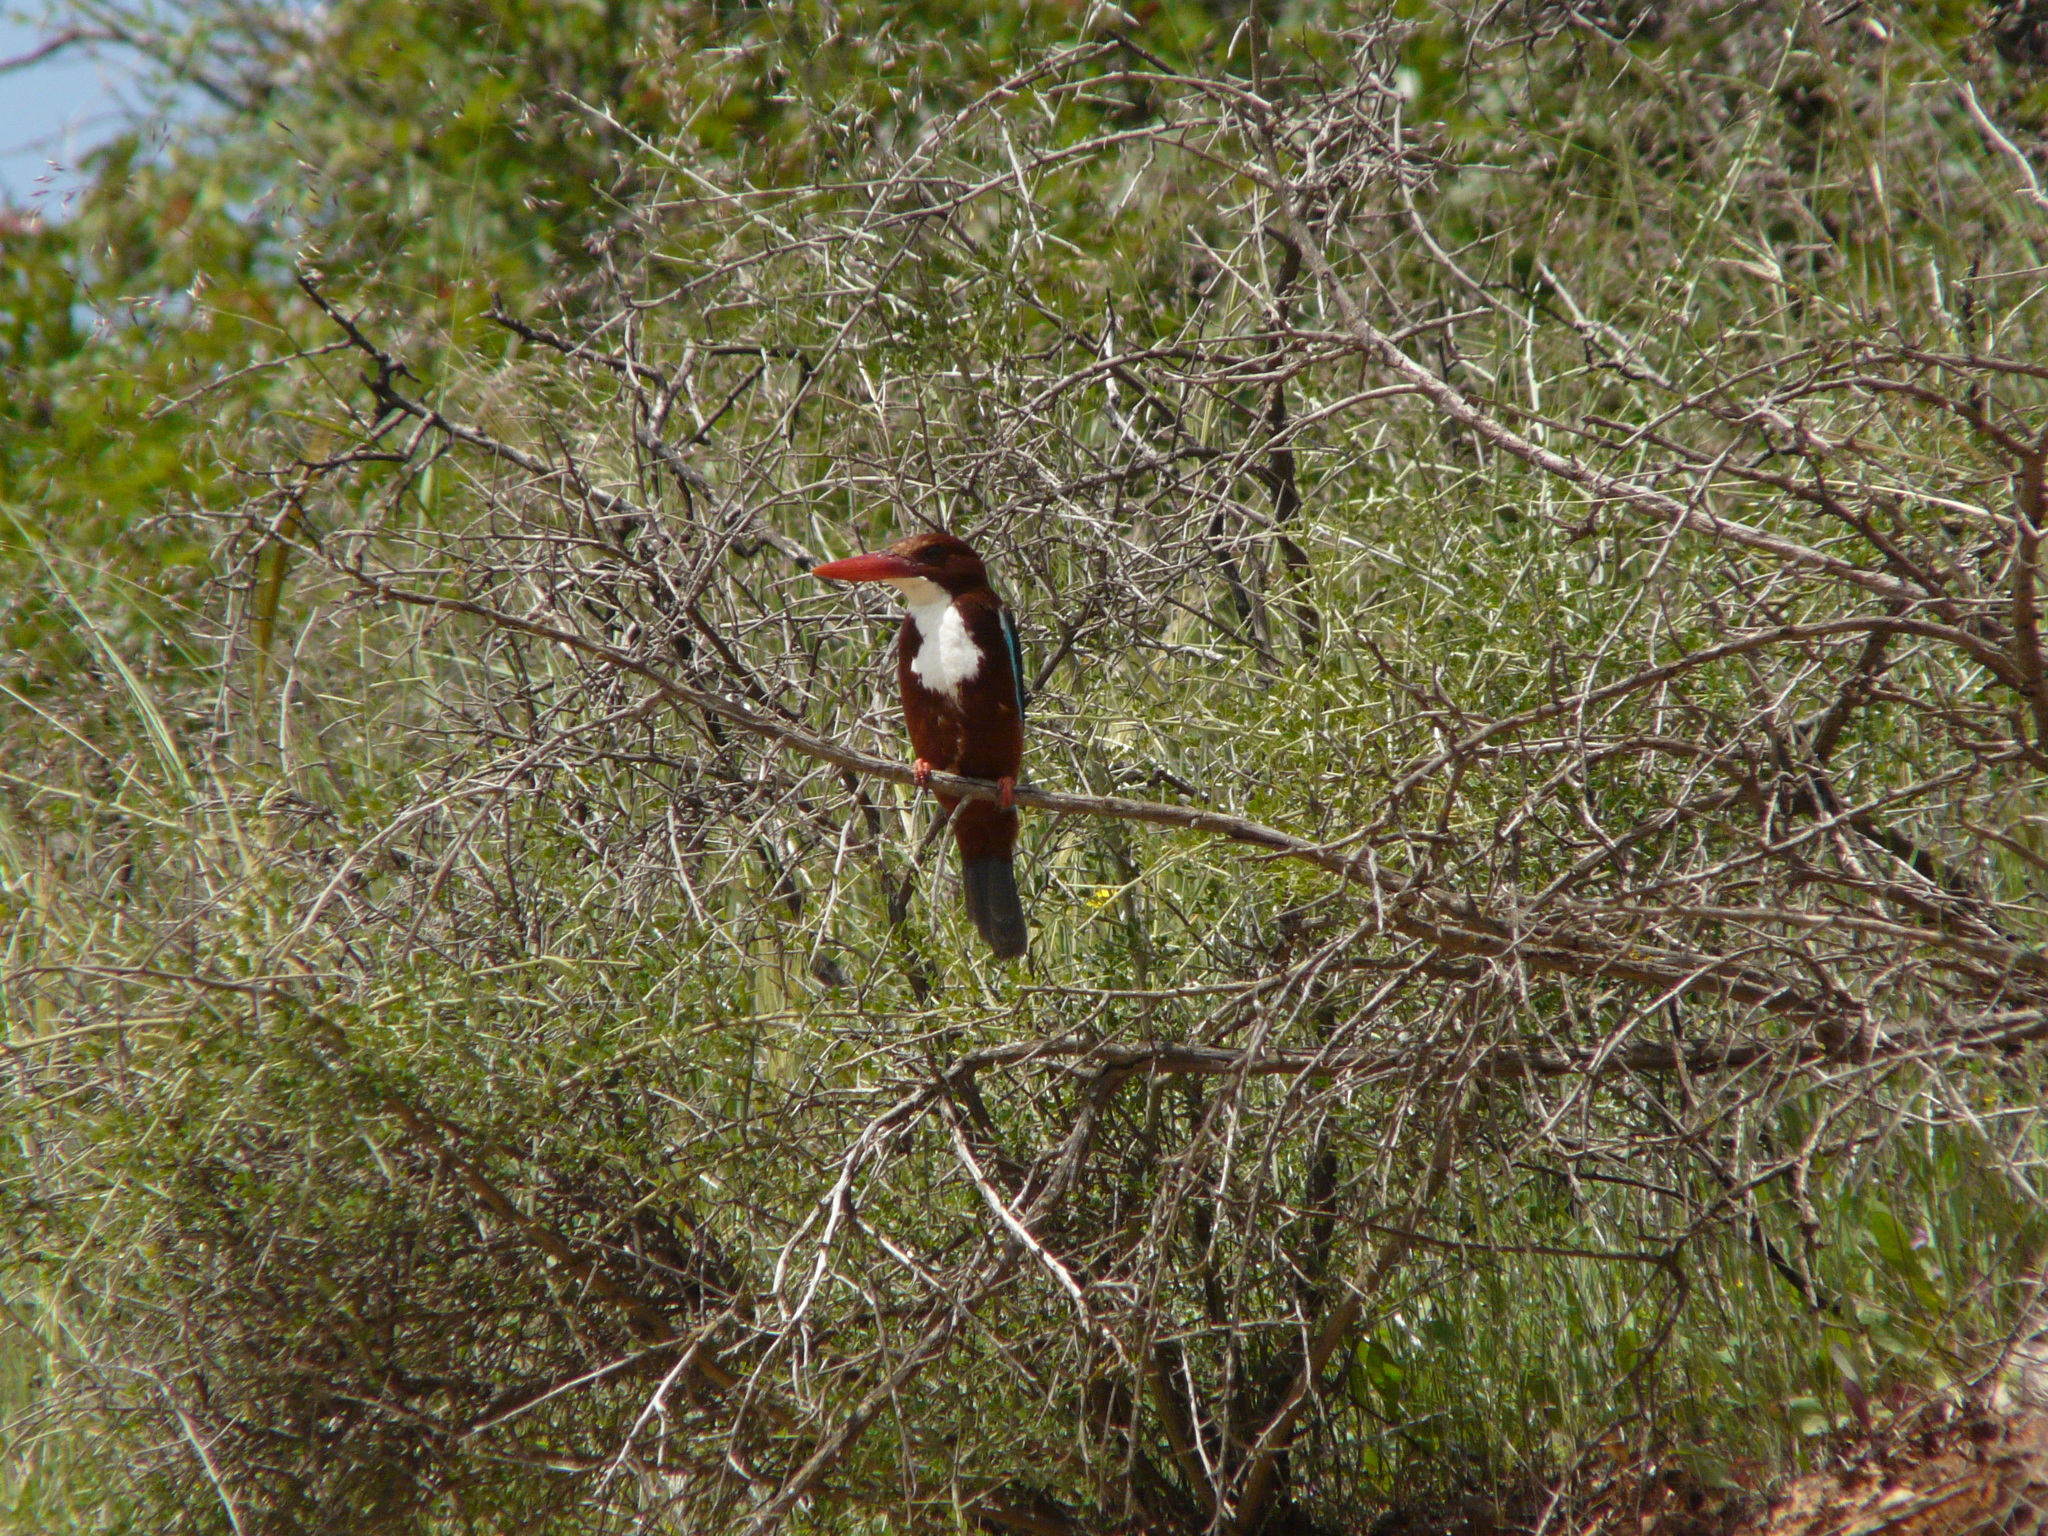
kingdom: Animalia
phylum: Chordata
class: Aves
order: Coraciiformes
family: Alcedinidae
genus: Halcyon
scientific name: Halcyon smyrnensis
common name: White-throated kingfisher
